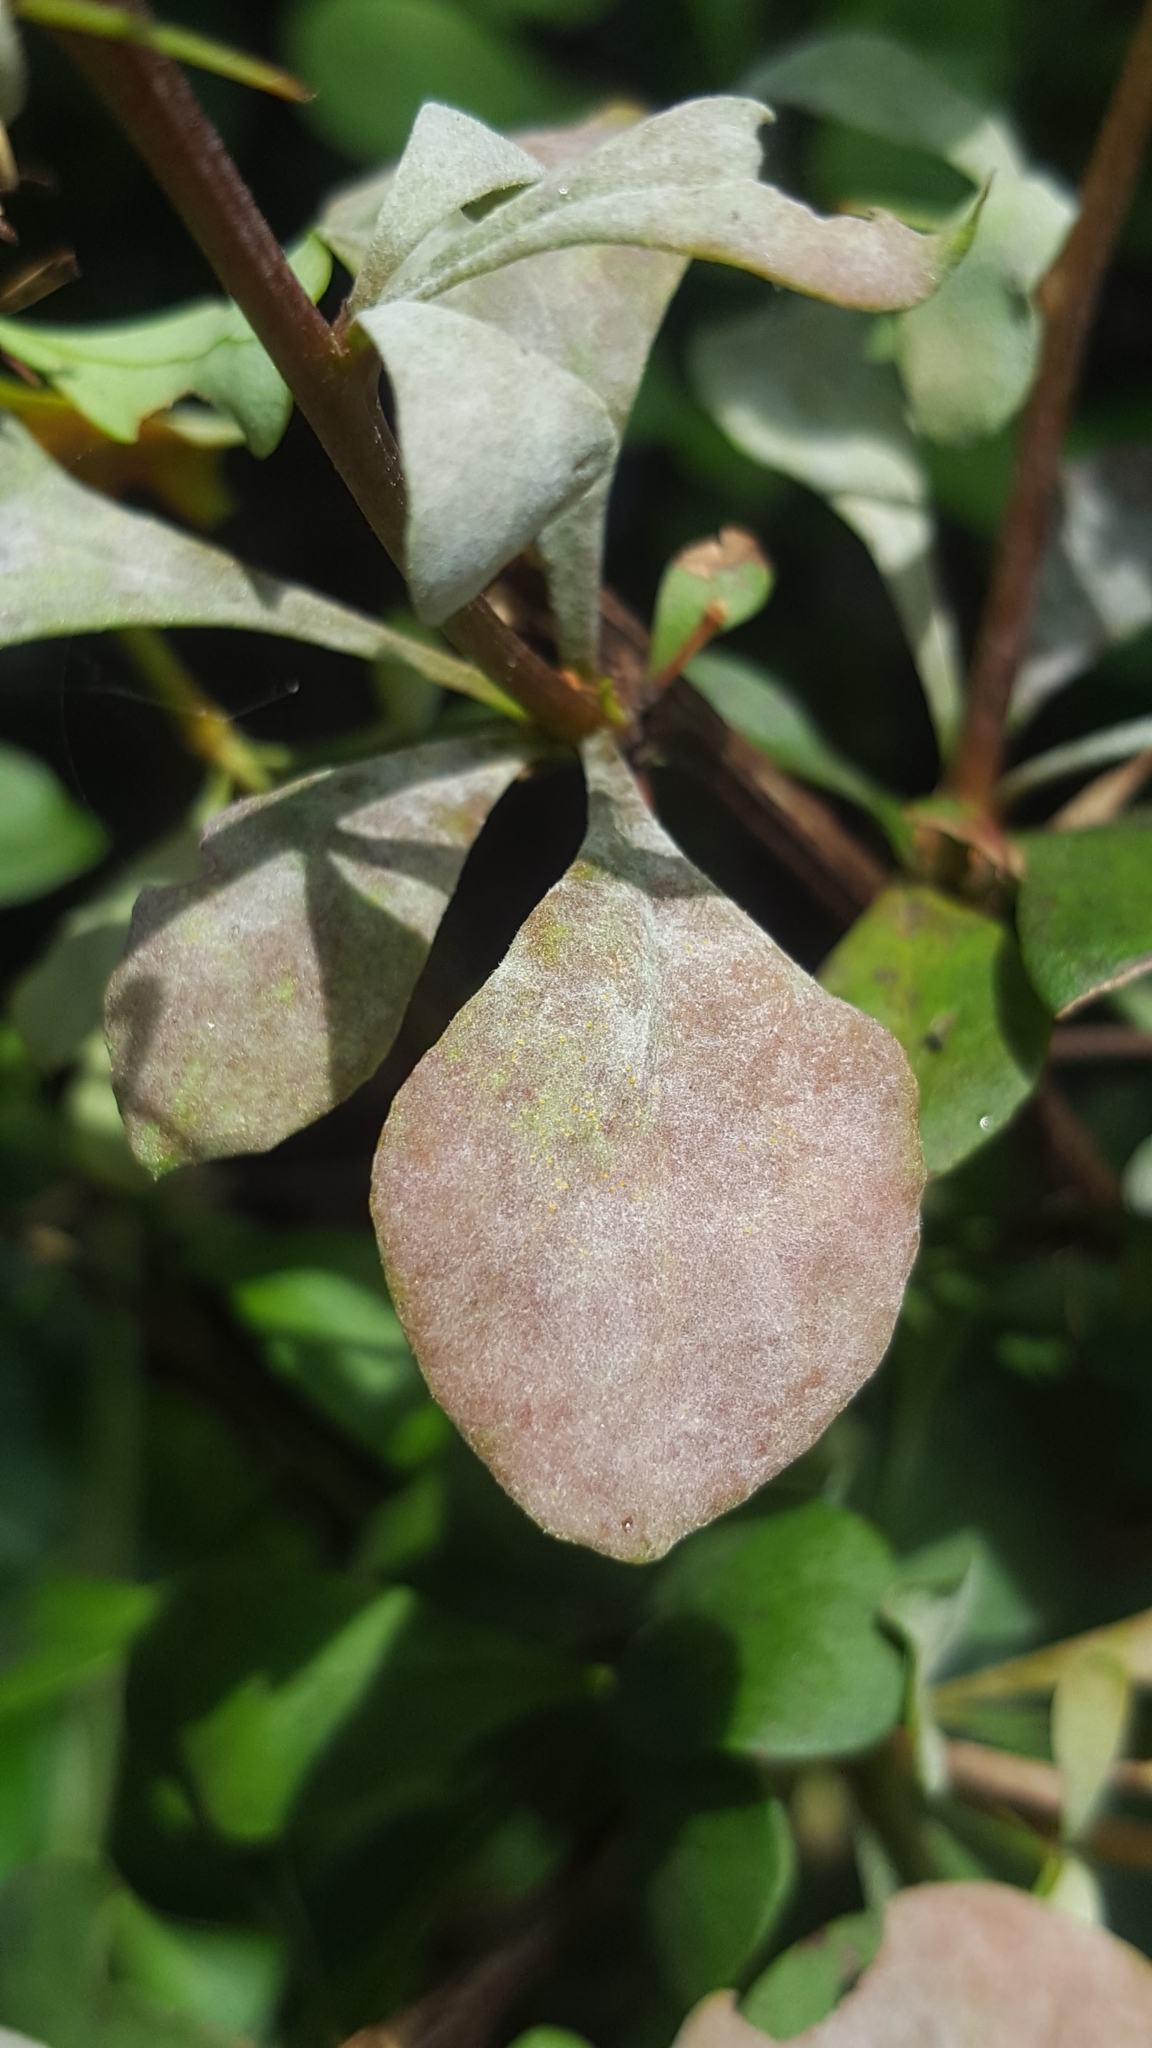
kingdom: Fungi
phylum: Ascomycota
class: Leotiomycetes
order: Helotiales
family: Erysiphaceae
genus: Erysiphe
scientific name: Erysiphe berberidis
